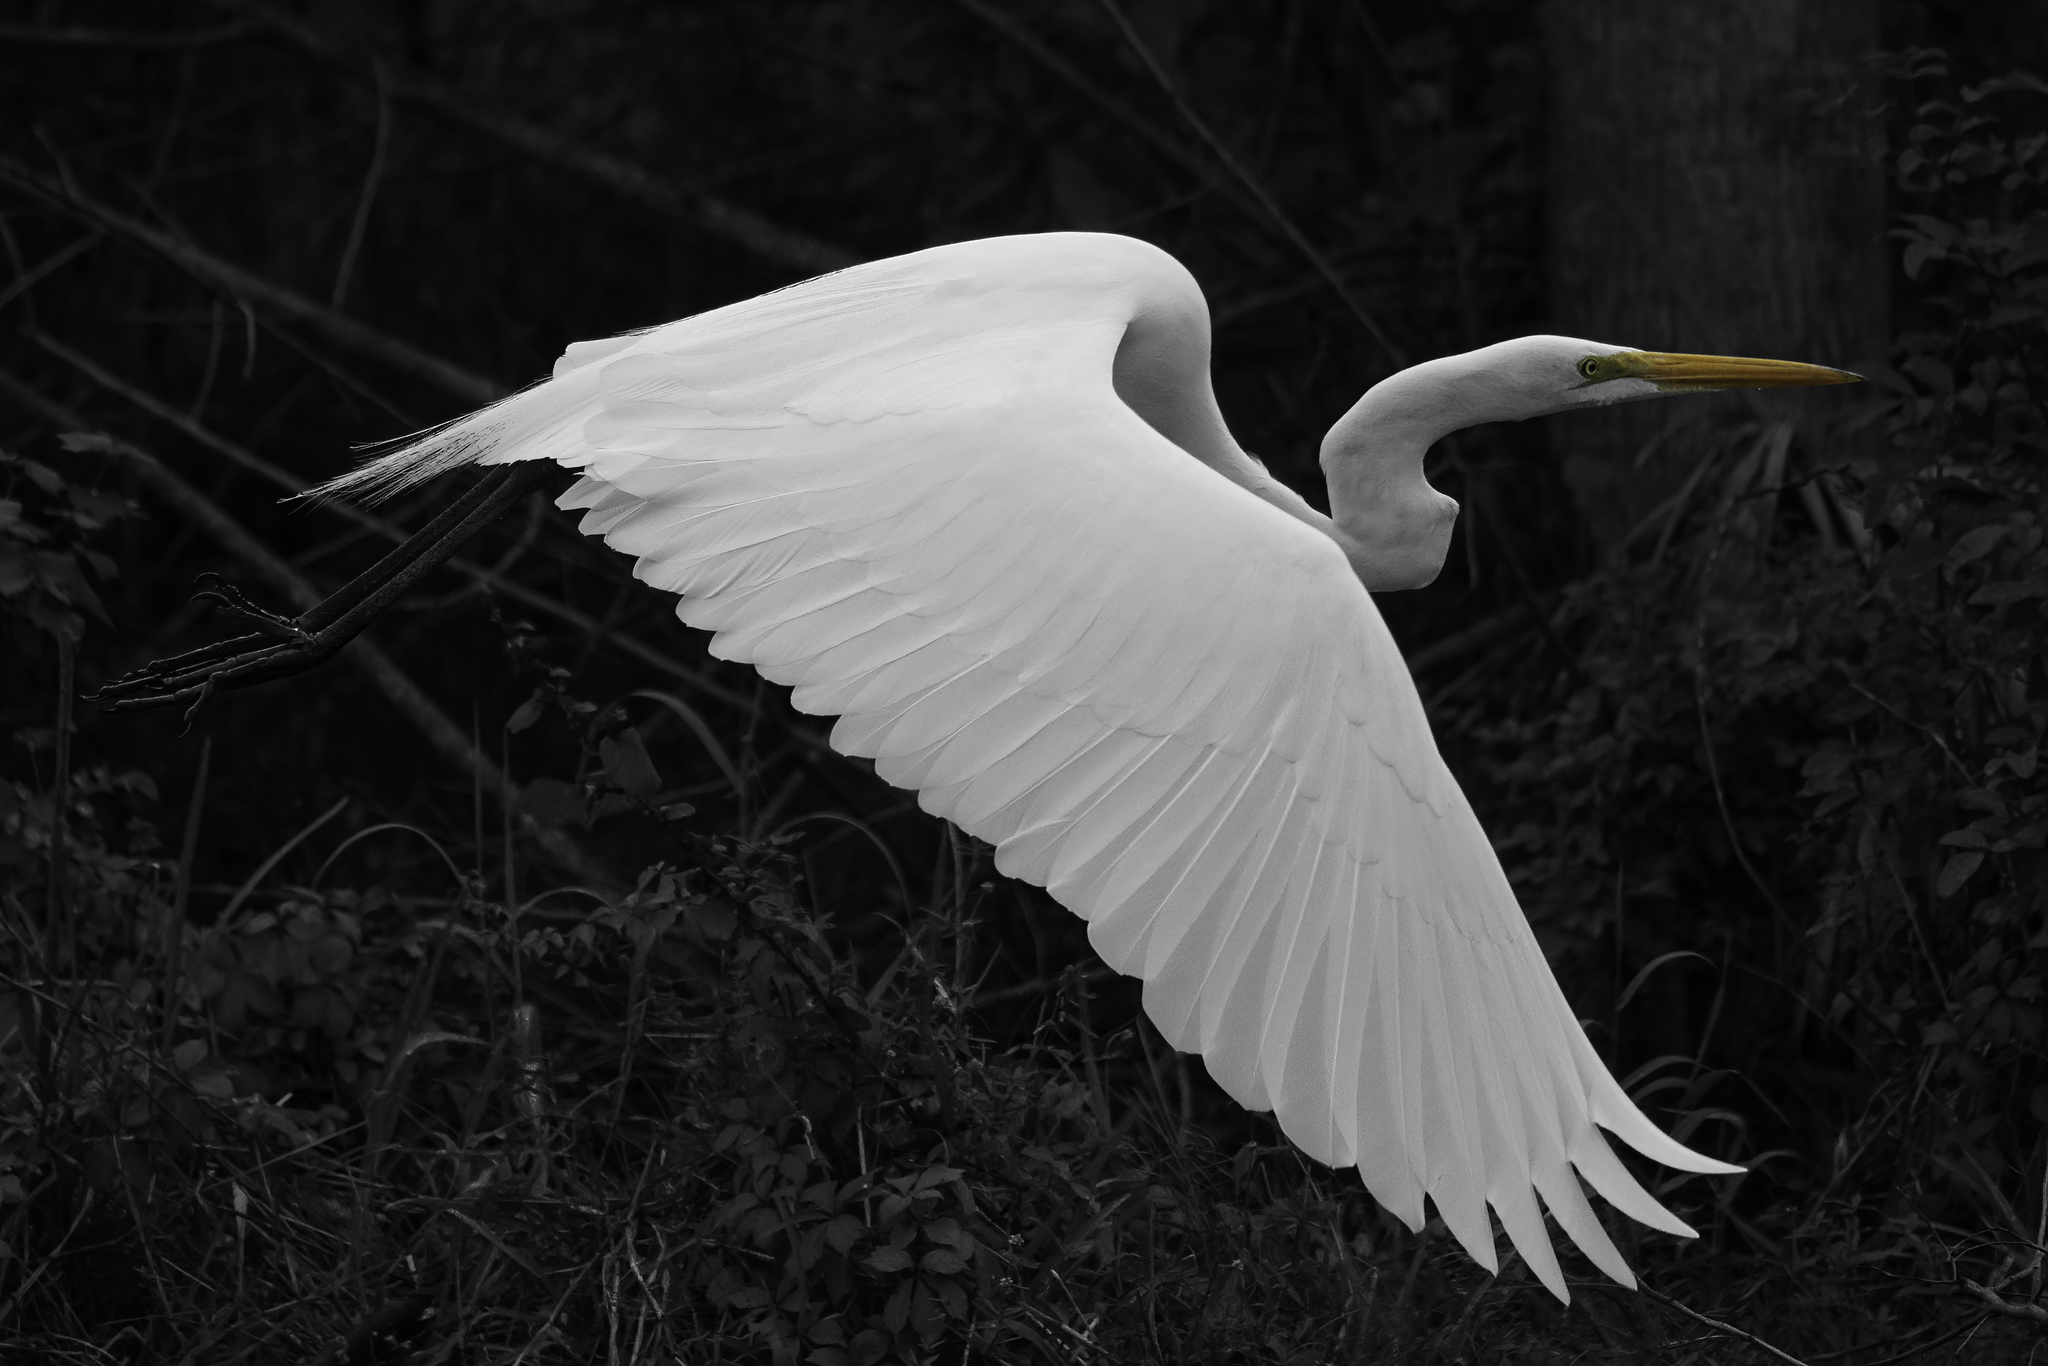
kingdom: Animalia
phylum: Chordata
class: Aves
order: Pelecaniformes
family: Ardeidae
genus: Ardea
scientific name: Ardea alba
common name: Great egret
